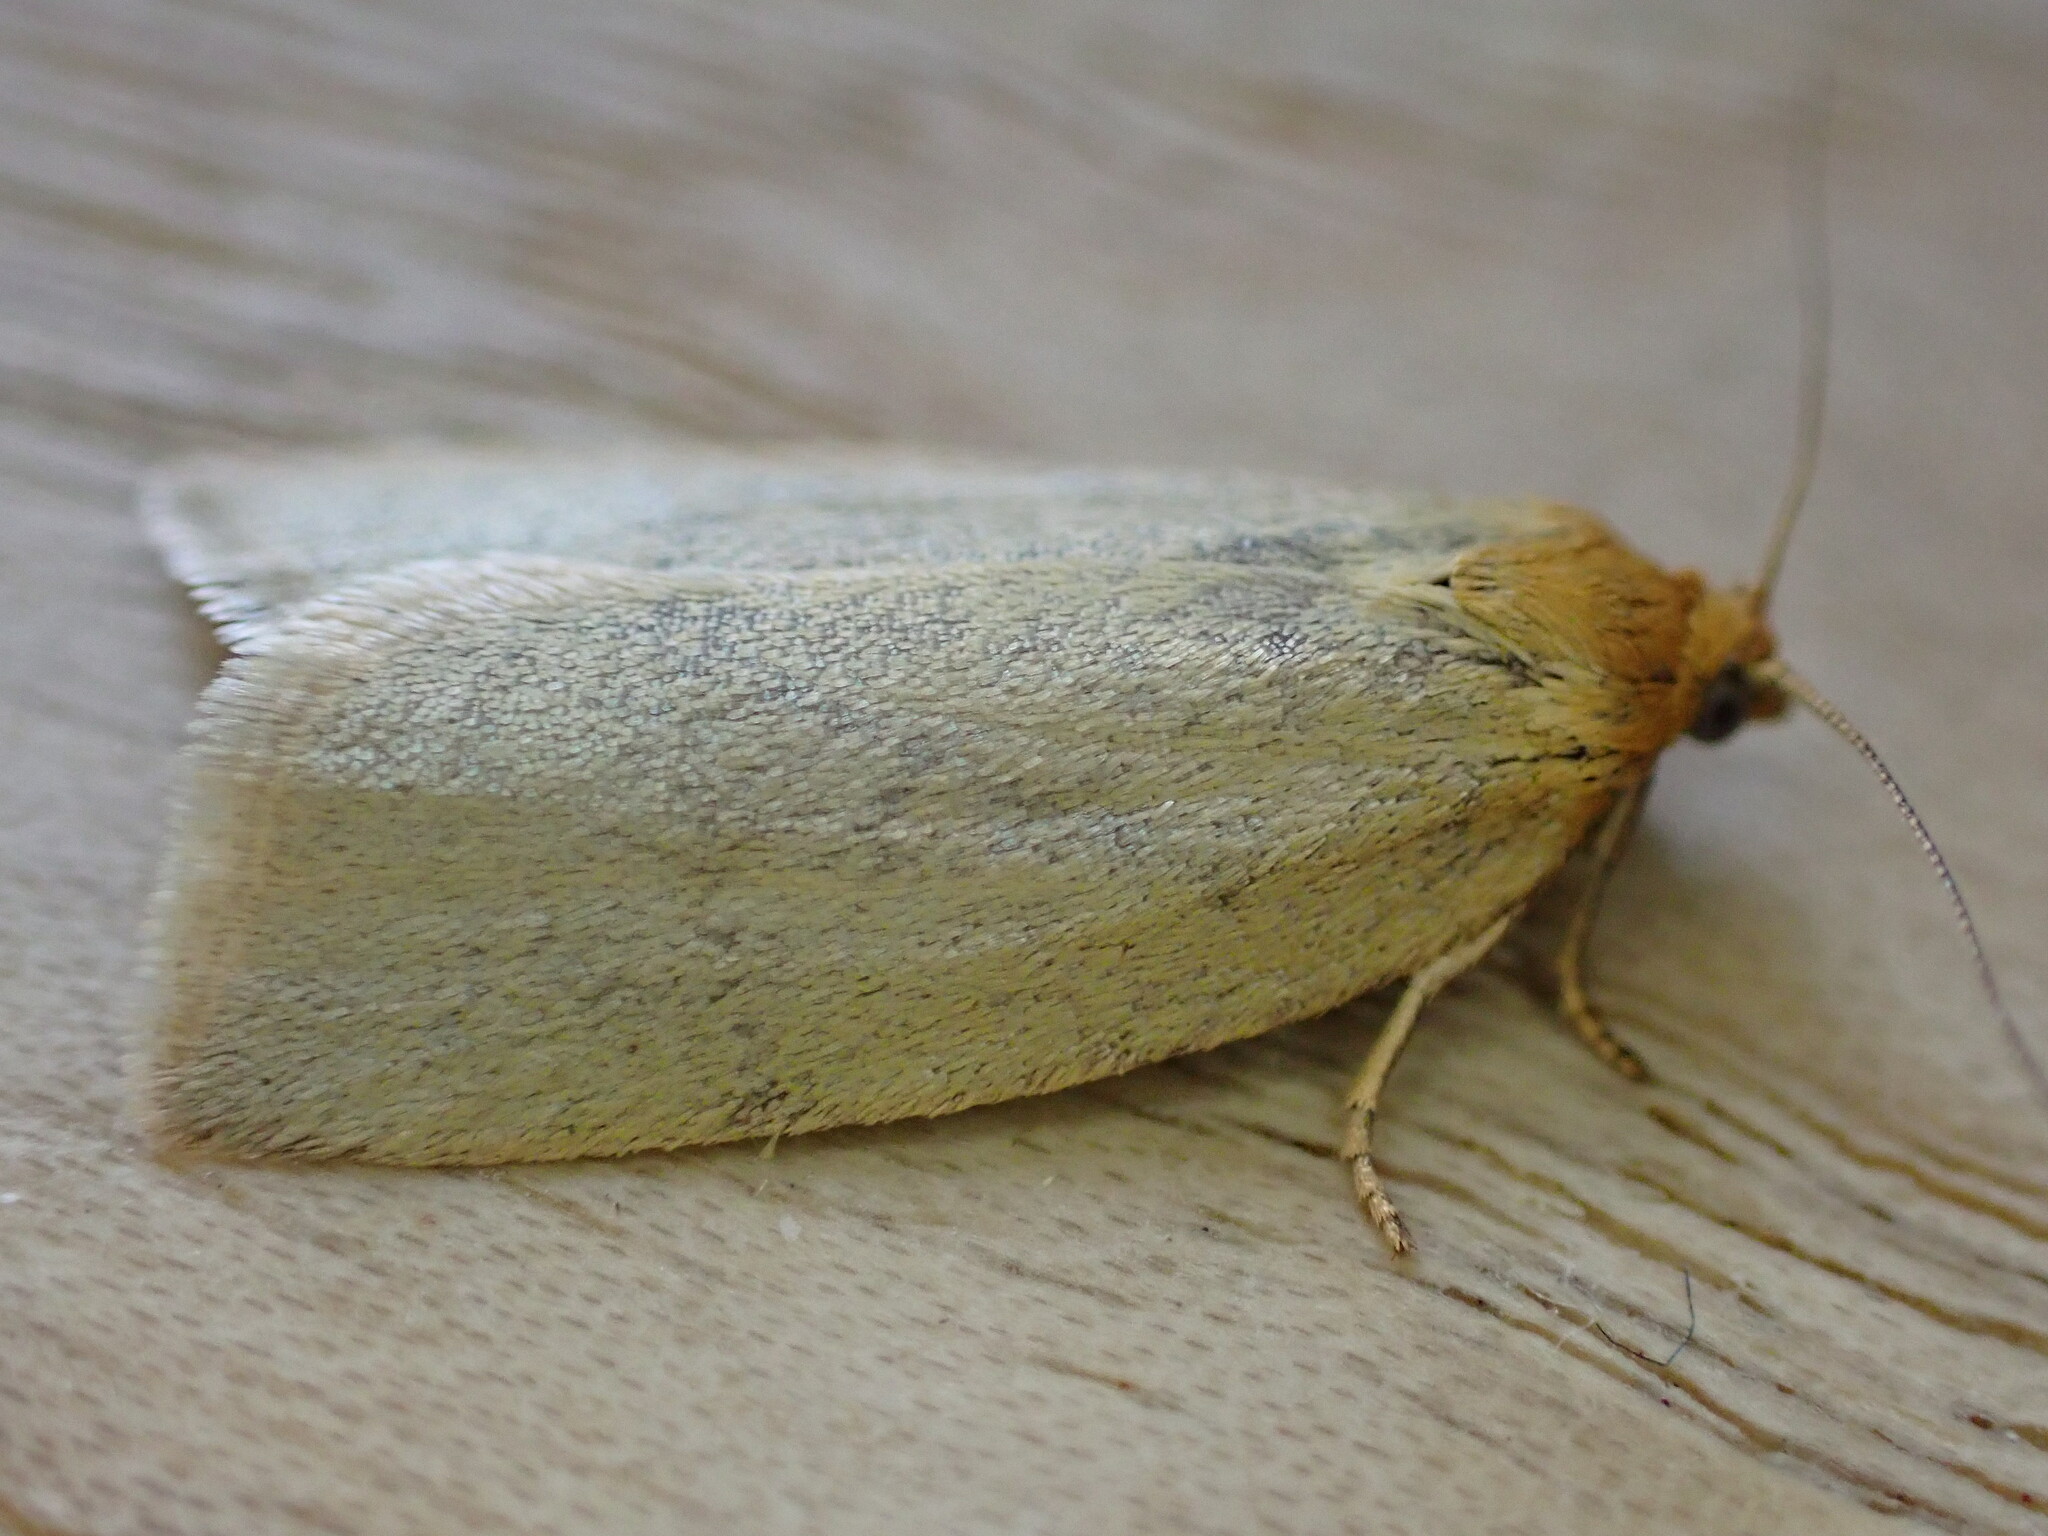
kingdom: Animalia
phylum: Arthropoda
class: Insecta
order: Lepidoptera
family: Tortricidae
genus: Aphelia
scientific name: Aphelia Zelotherses paleana
